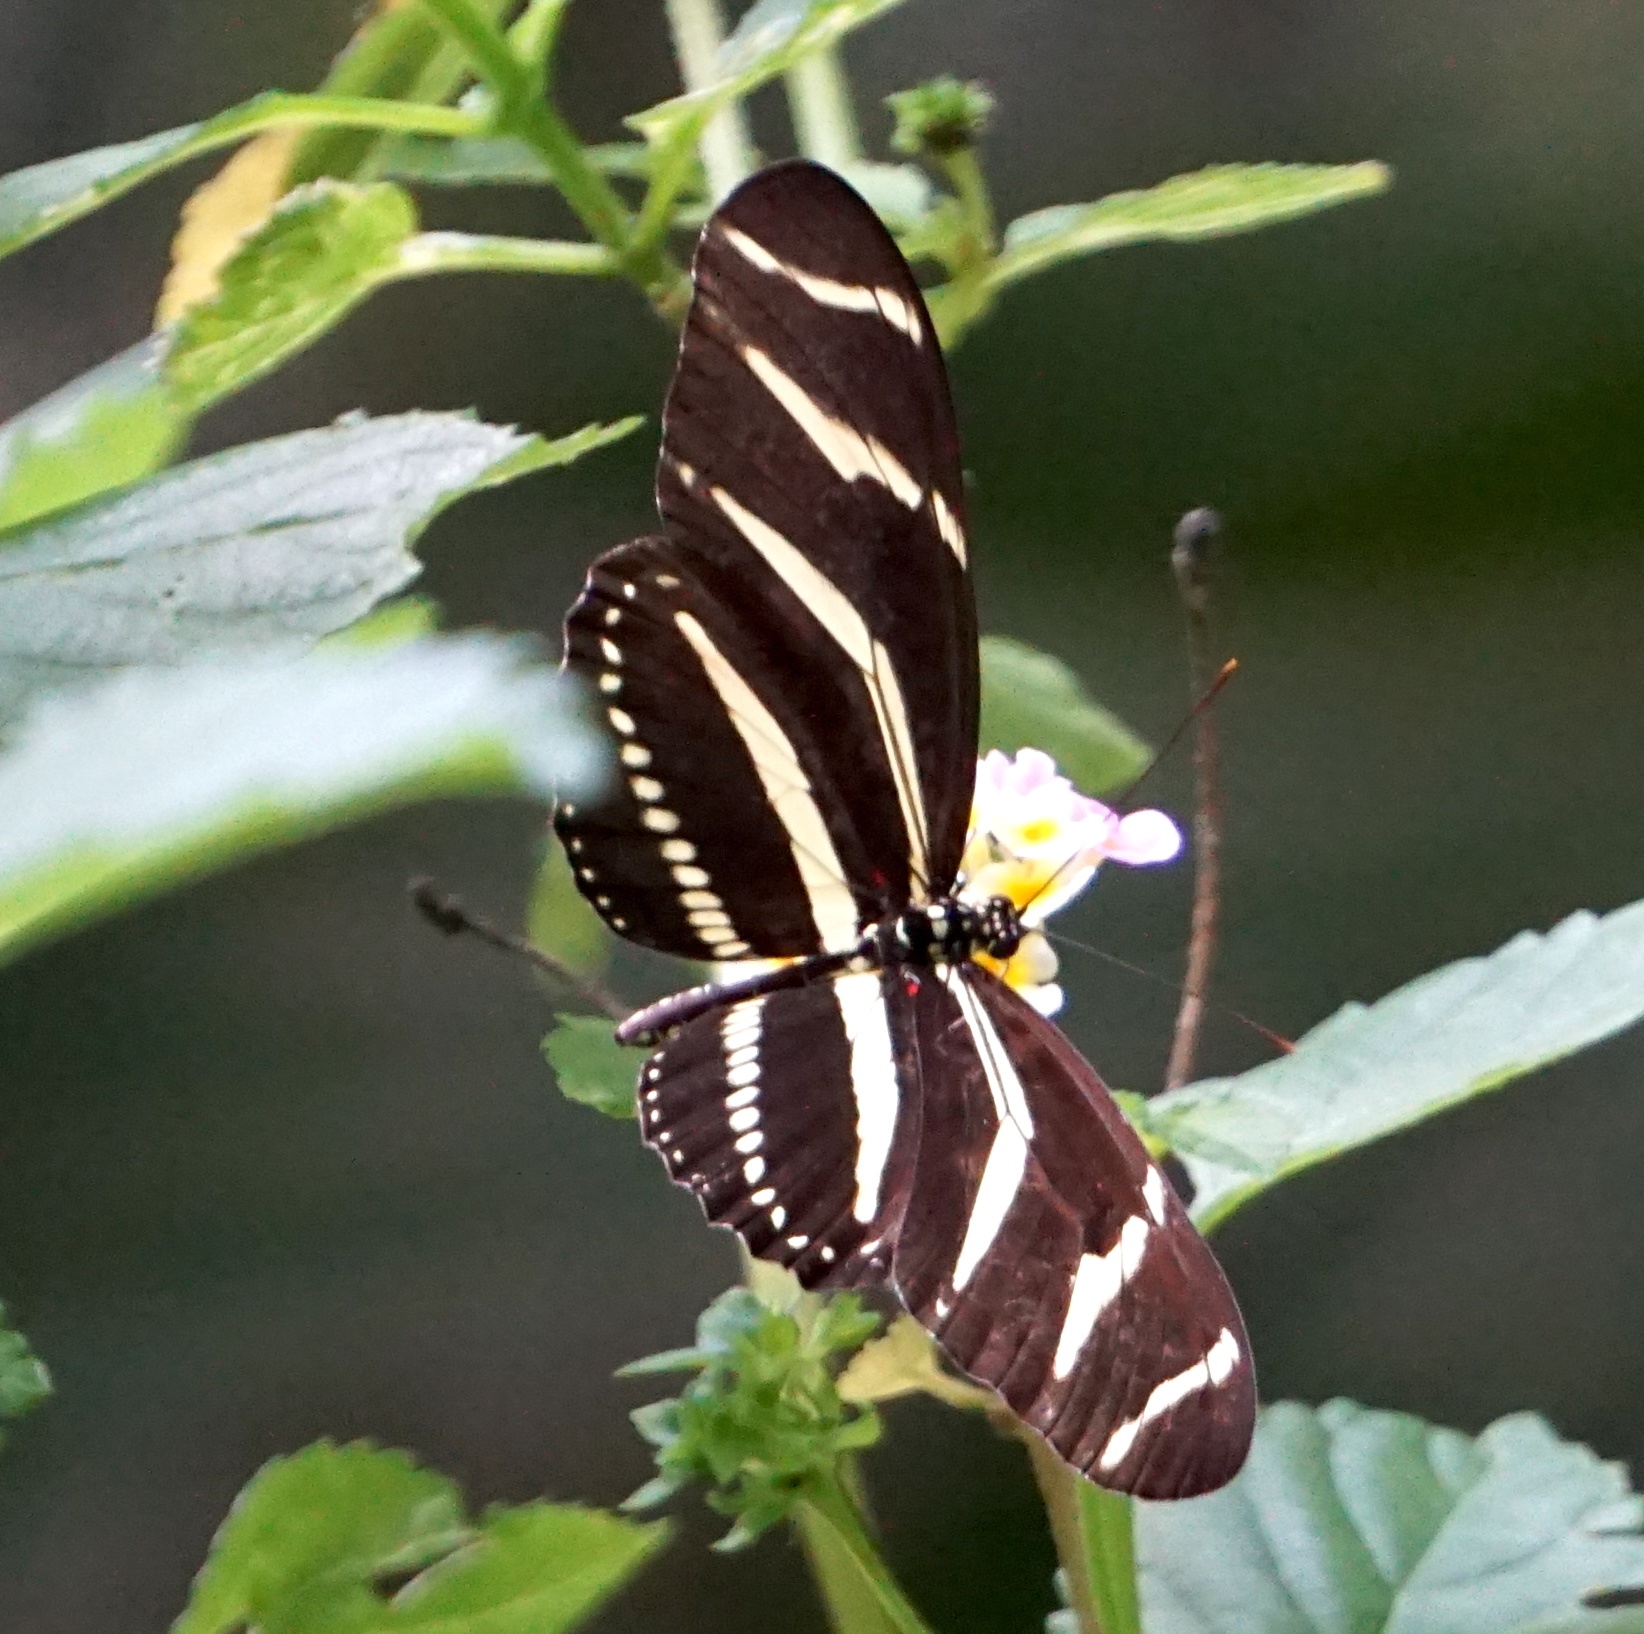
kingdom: Animalia
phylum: Arthropoda
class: Insecta
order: Lepidoptera
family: Nymphalidae
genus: Heliconius
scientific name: Heliconius charithonia
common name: Zebra long wing
